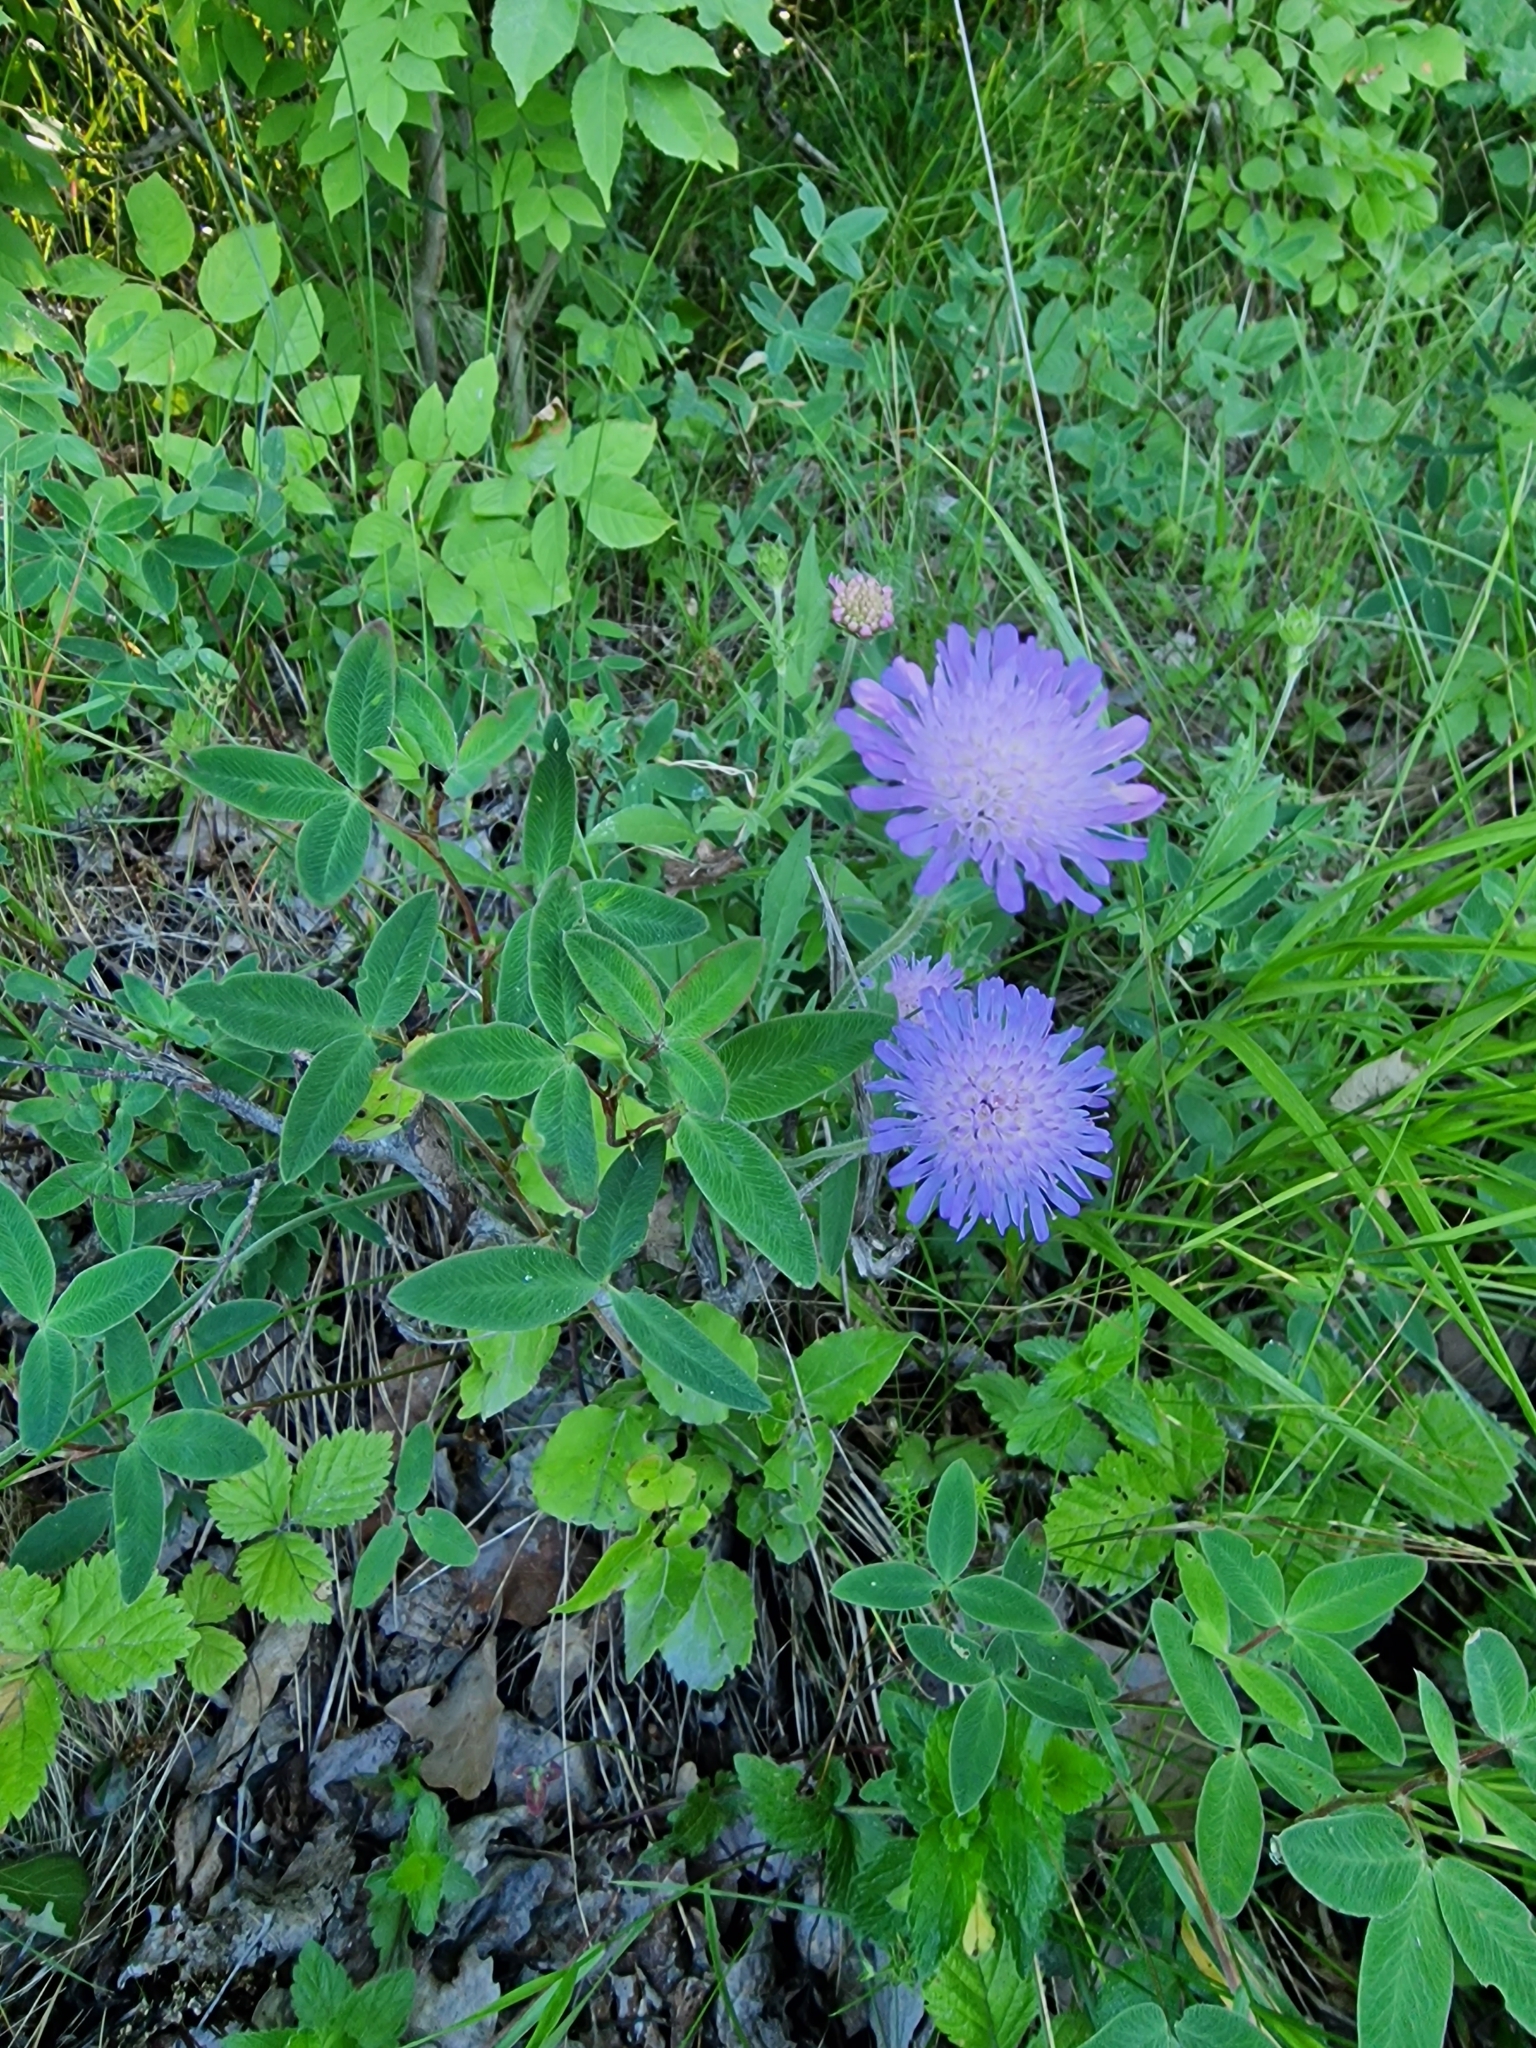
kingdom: Plantae
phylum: Tracheophyta
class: Magnoliopsida
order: Dipsacales
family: Caprifoliaceae
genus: Knautia
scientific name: Knautia arvensis
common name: Field scabiosa
